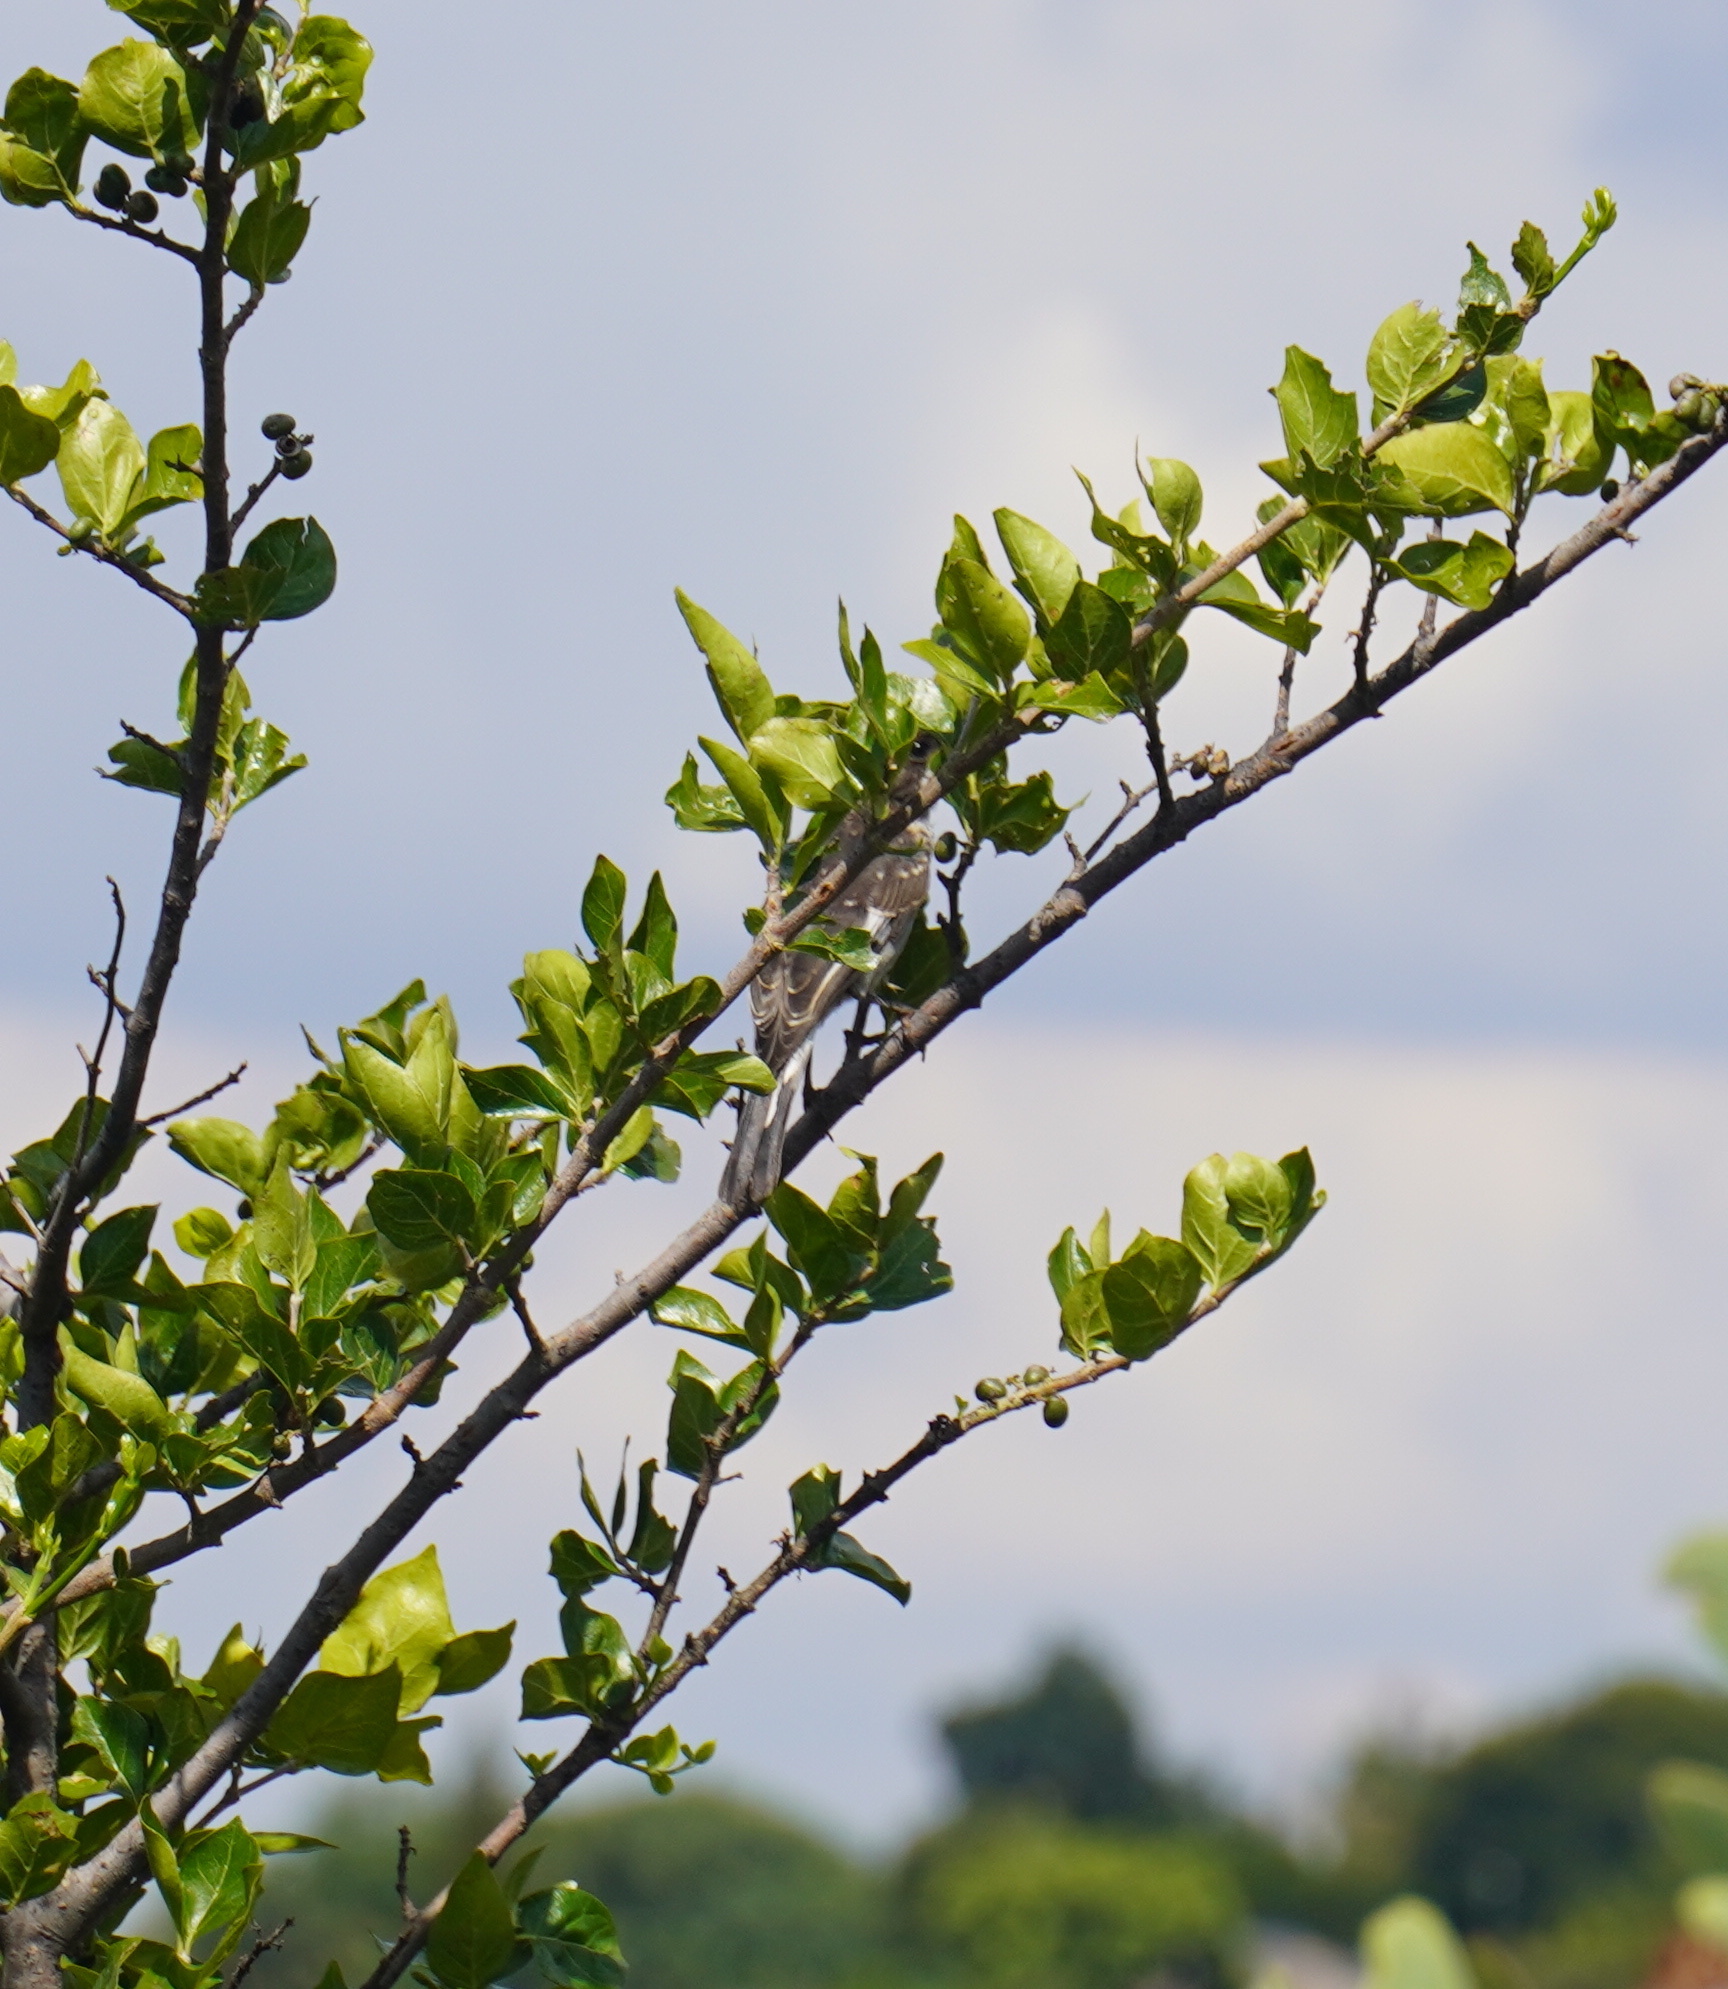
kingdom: Animalia
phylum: Chordata
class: Aves
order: Passeriformes
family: Muscicapidae
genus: Sigelus
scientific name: Sigelus silens
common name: Fiscal flycatcher
